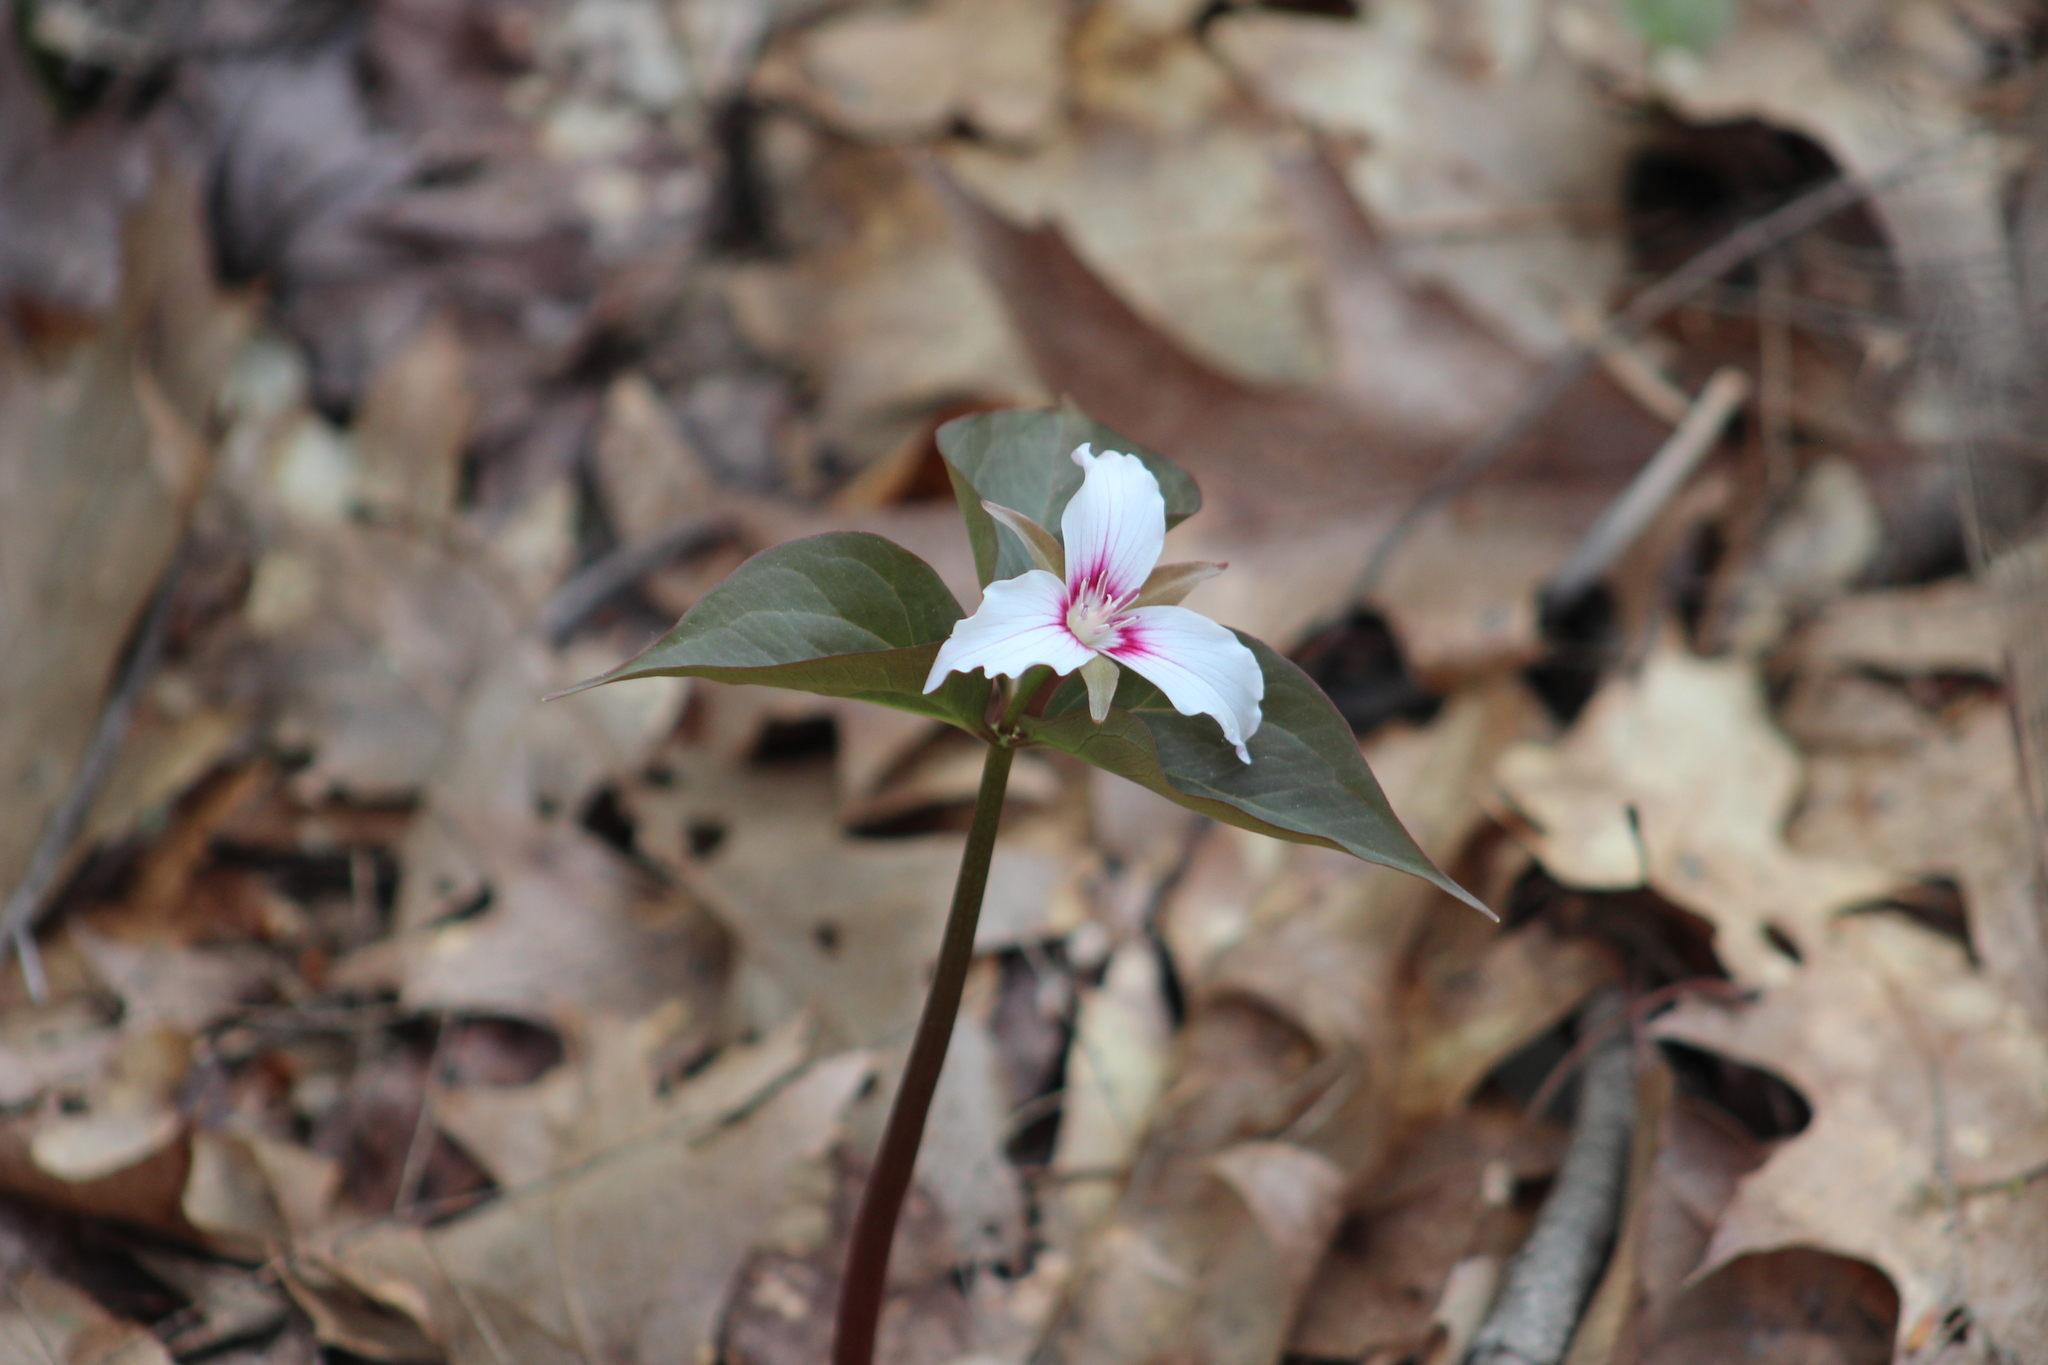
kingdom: Plantae
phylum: Tracheophyta
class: Liliopsida
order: Liliales
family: Melanthiaceae
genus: Trillium
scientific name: Trillium undulatum
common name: Paint trillium
